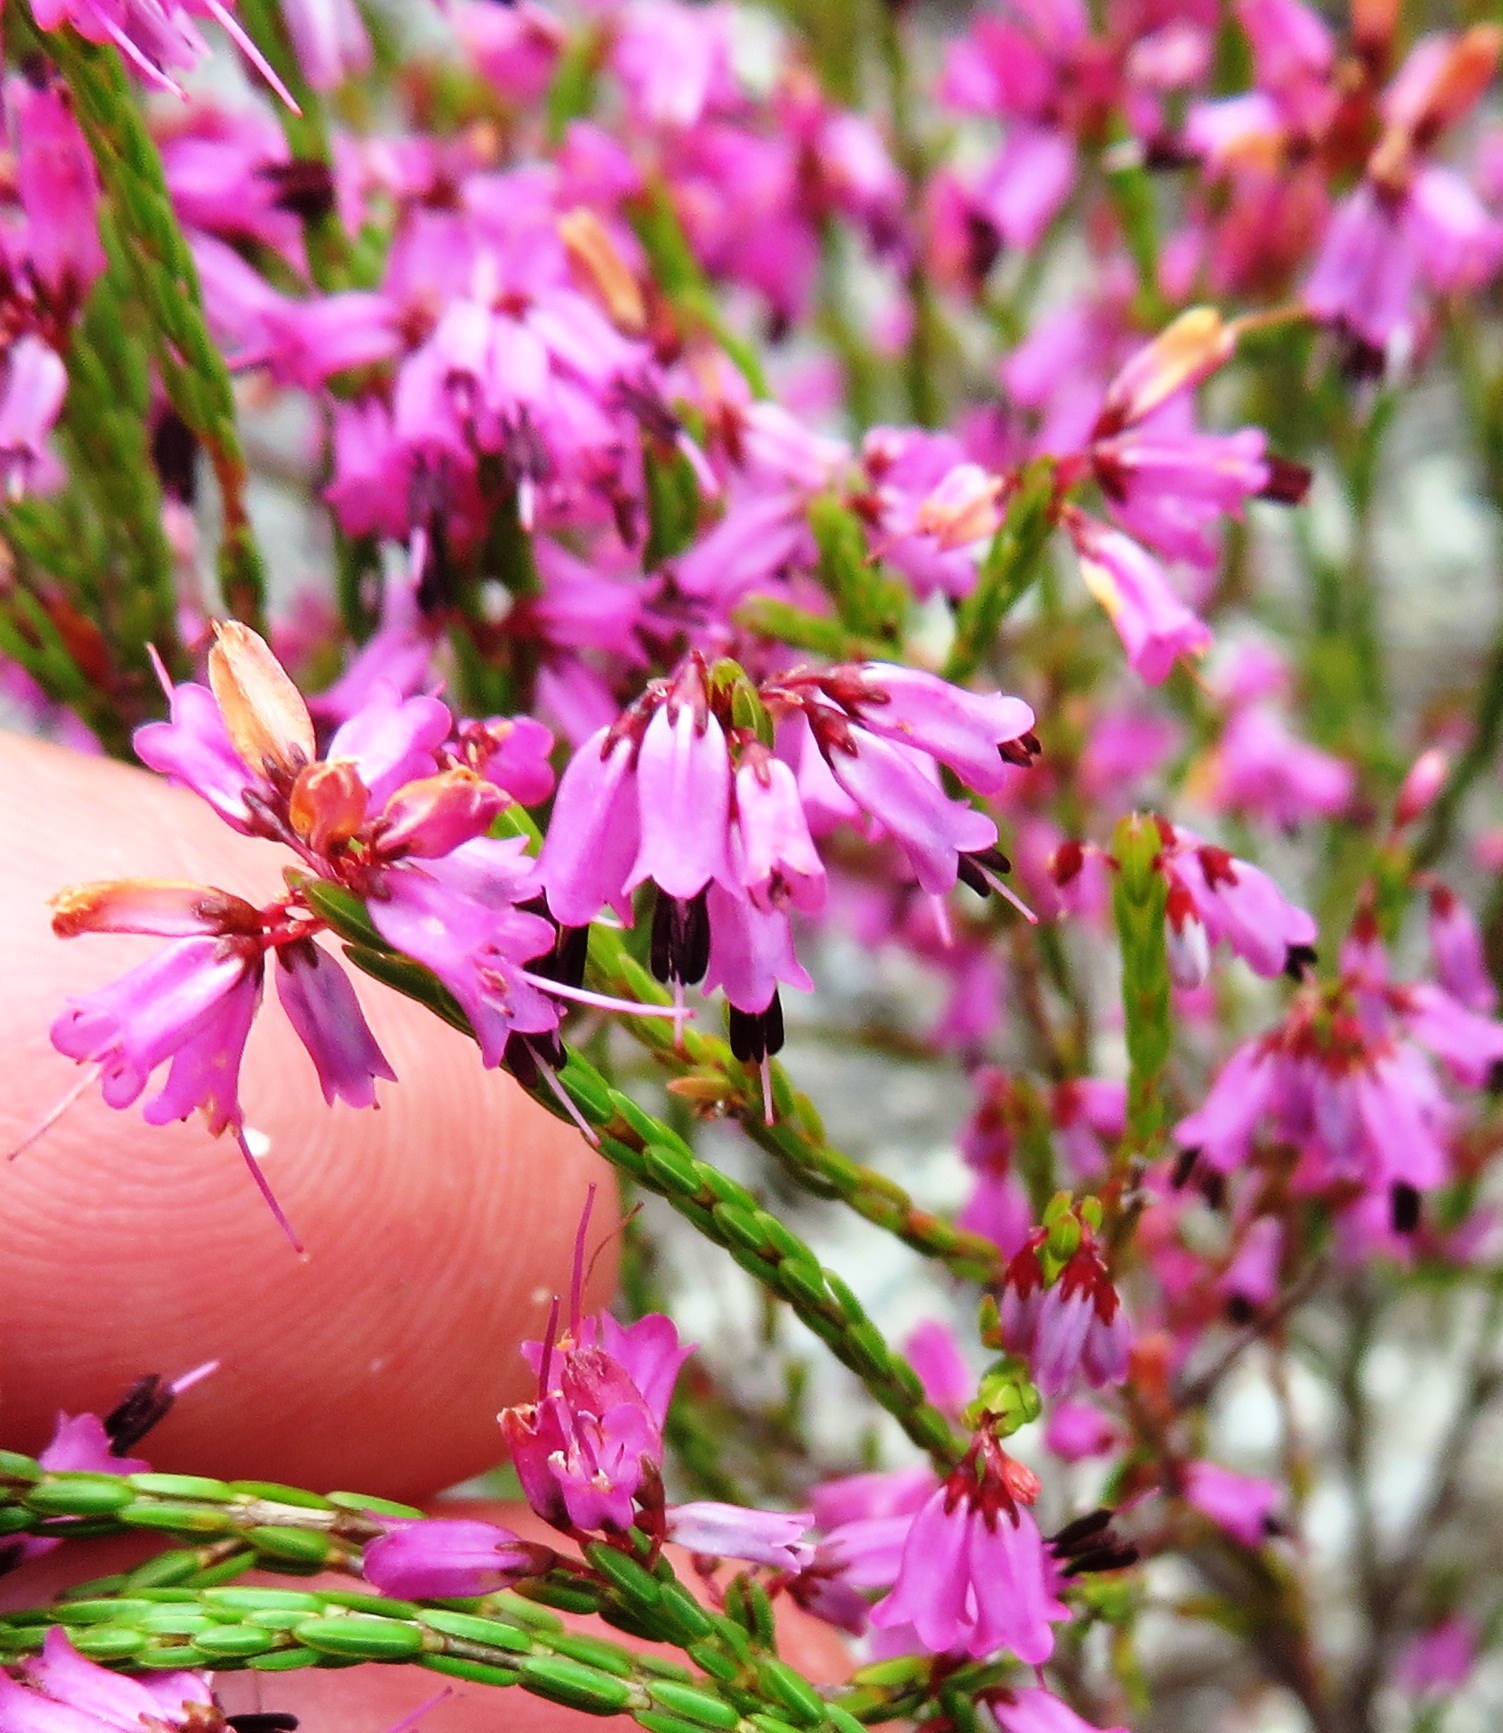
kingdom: Plantae
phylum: Tracheophyta
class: Magnoliopsida
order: Ericales
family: Ericaceae
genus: Erica
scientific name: Erica equisetifolia
